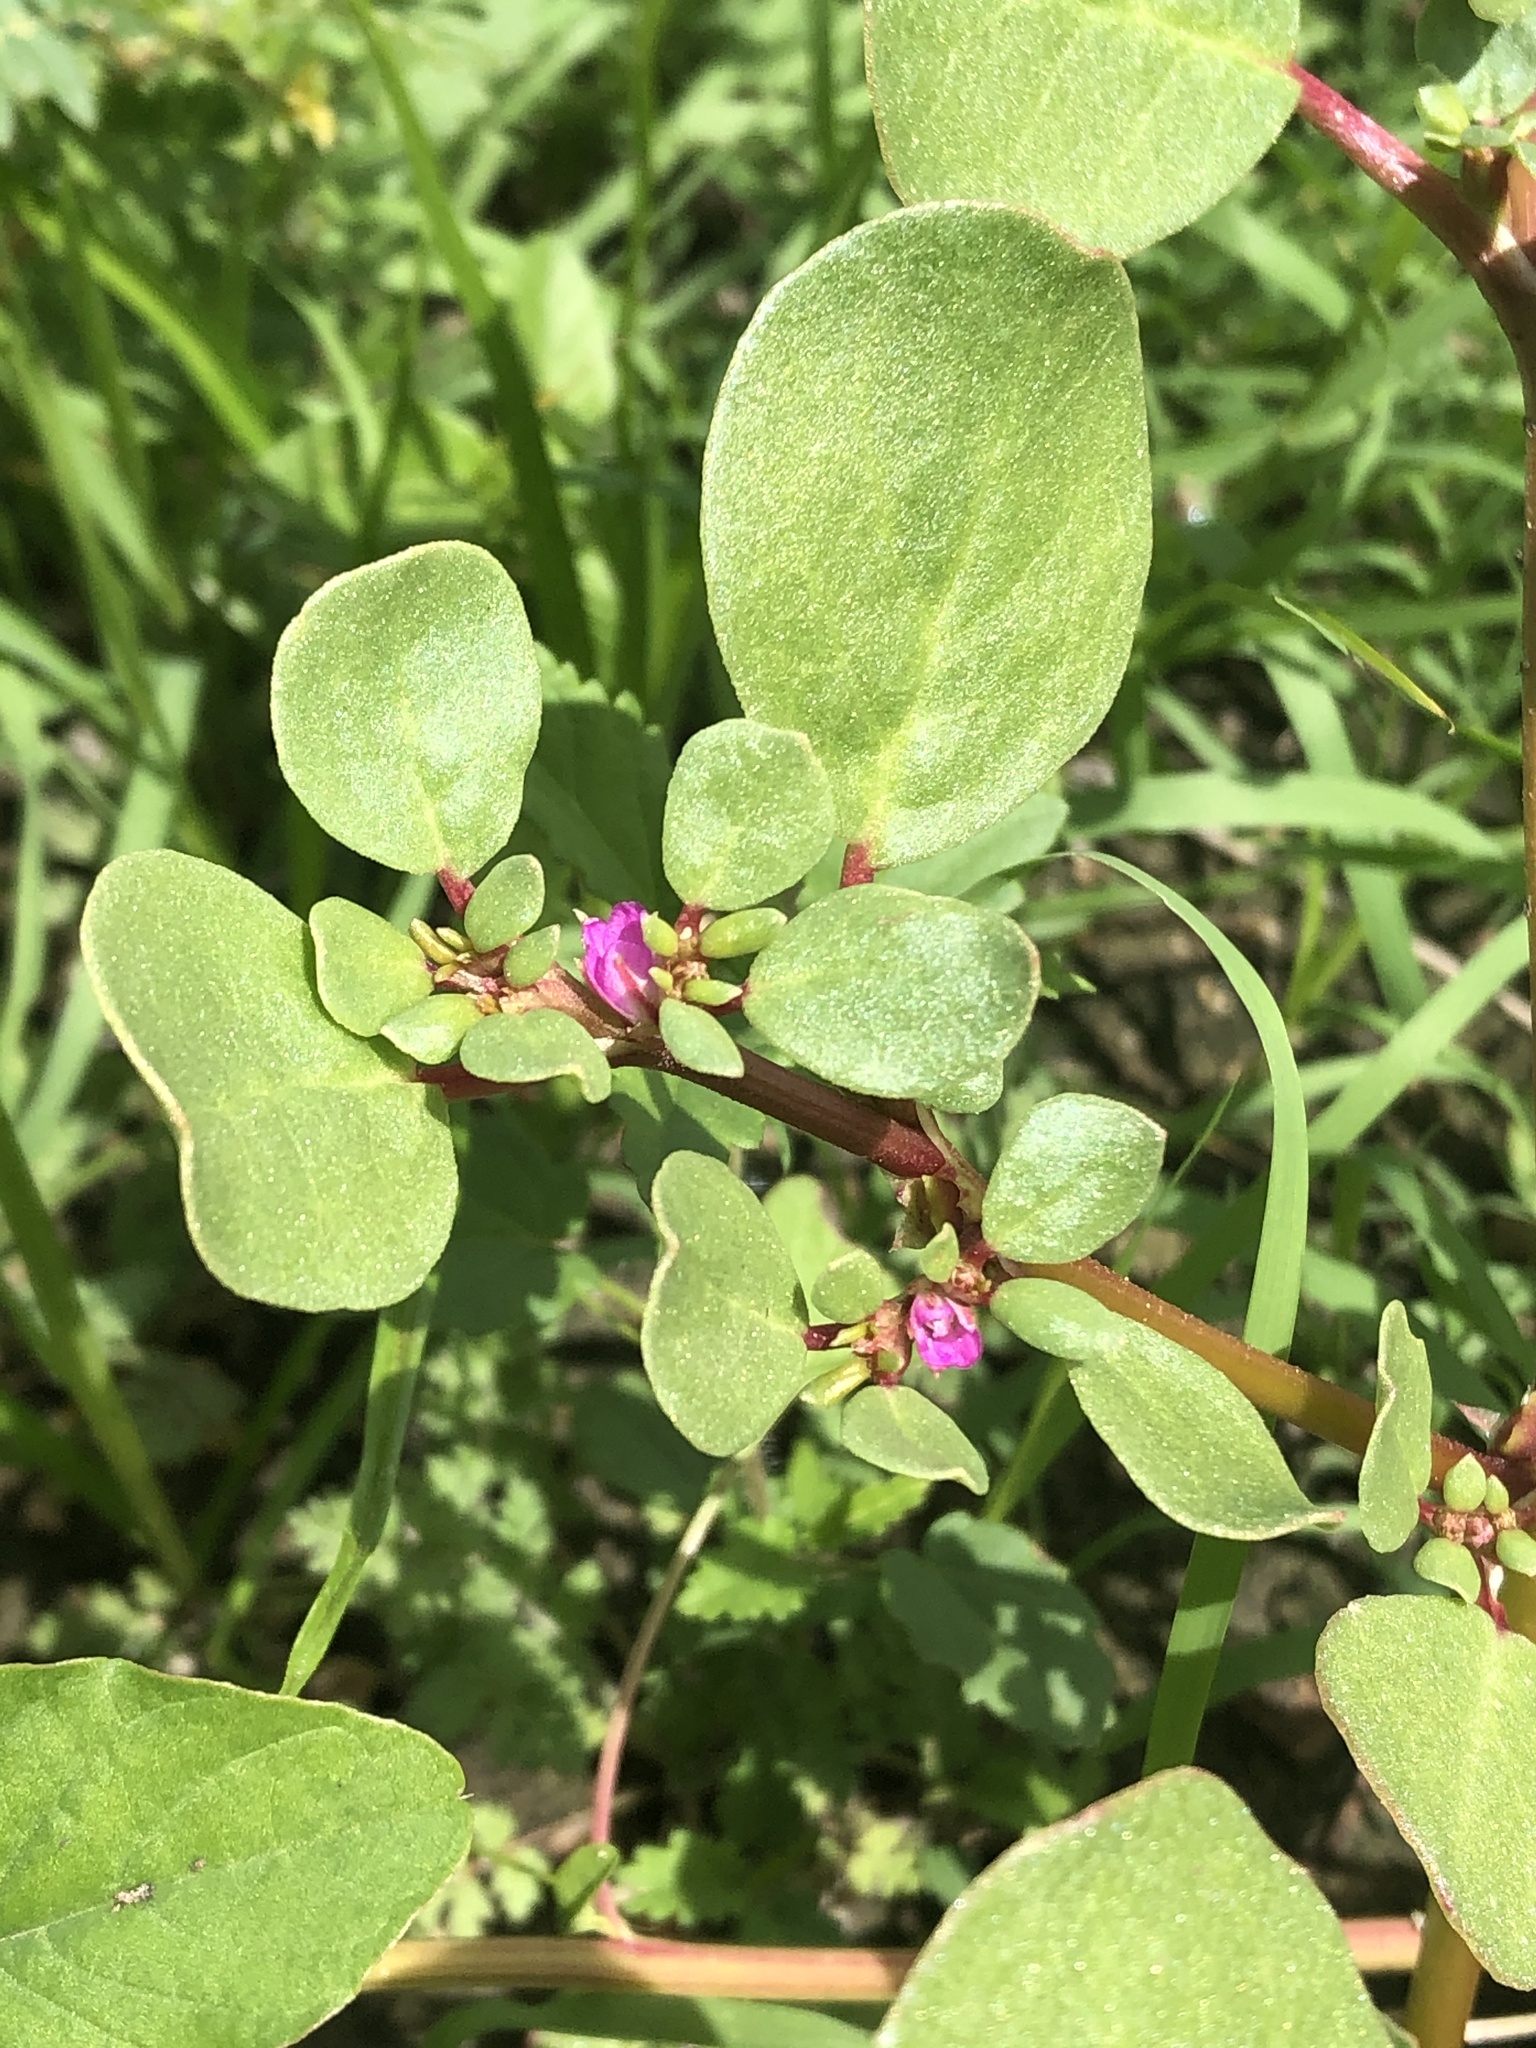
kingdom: Plantae
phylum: Tracheophyta
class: Magnoliopsida
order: Caryophyllales
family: Aizoaceae
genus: Trianthema
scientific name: Trianthema portulacastrum
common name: Desert horsepurslane
